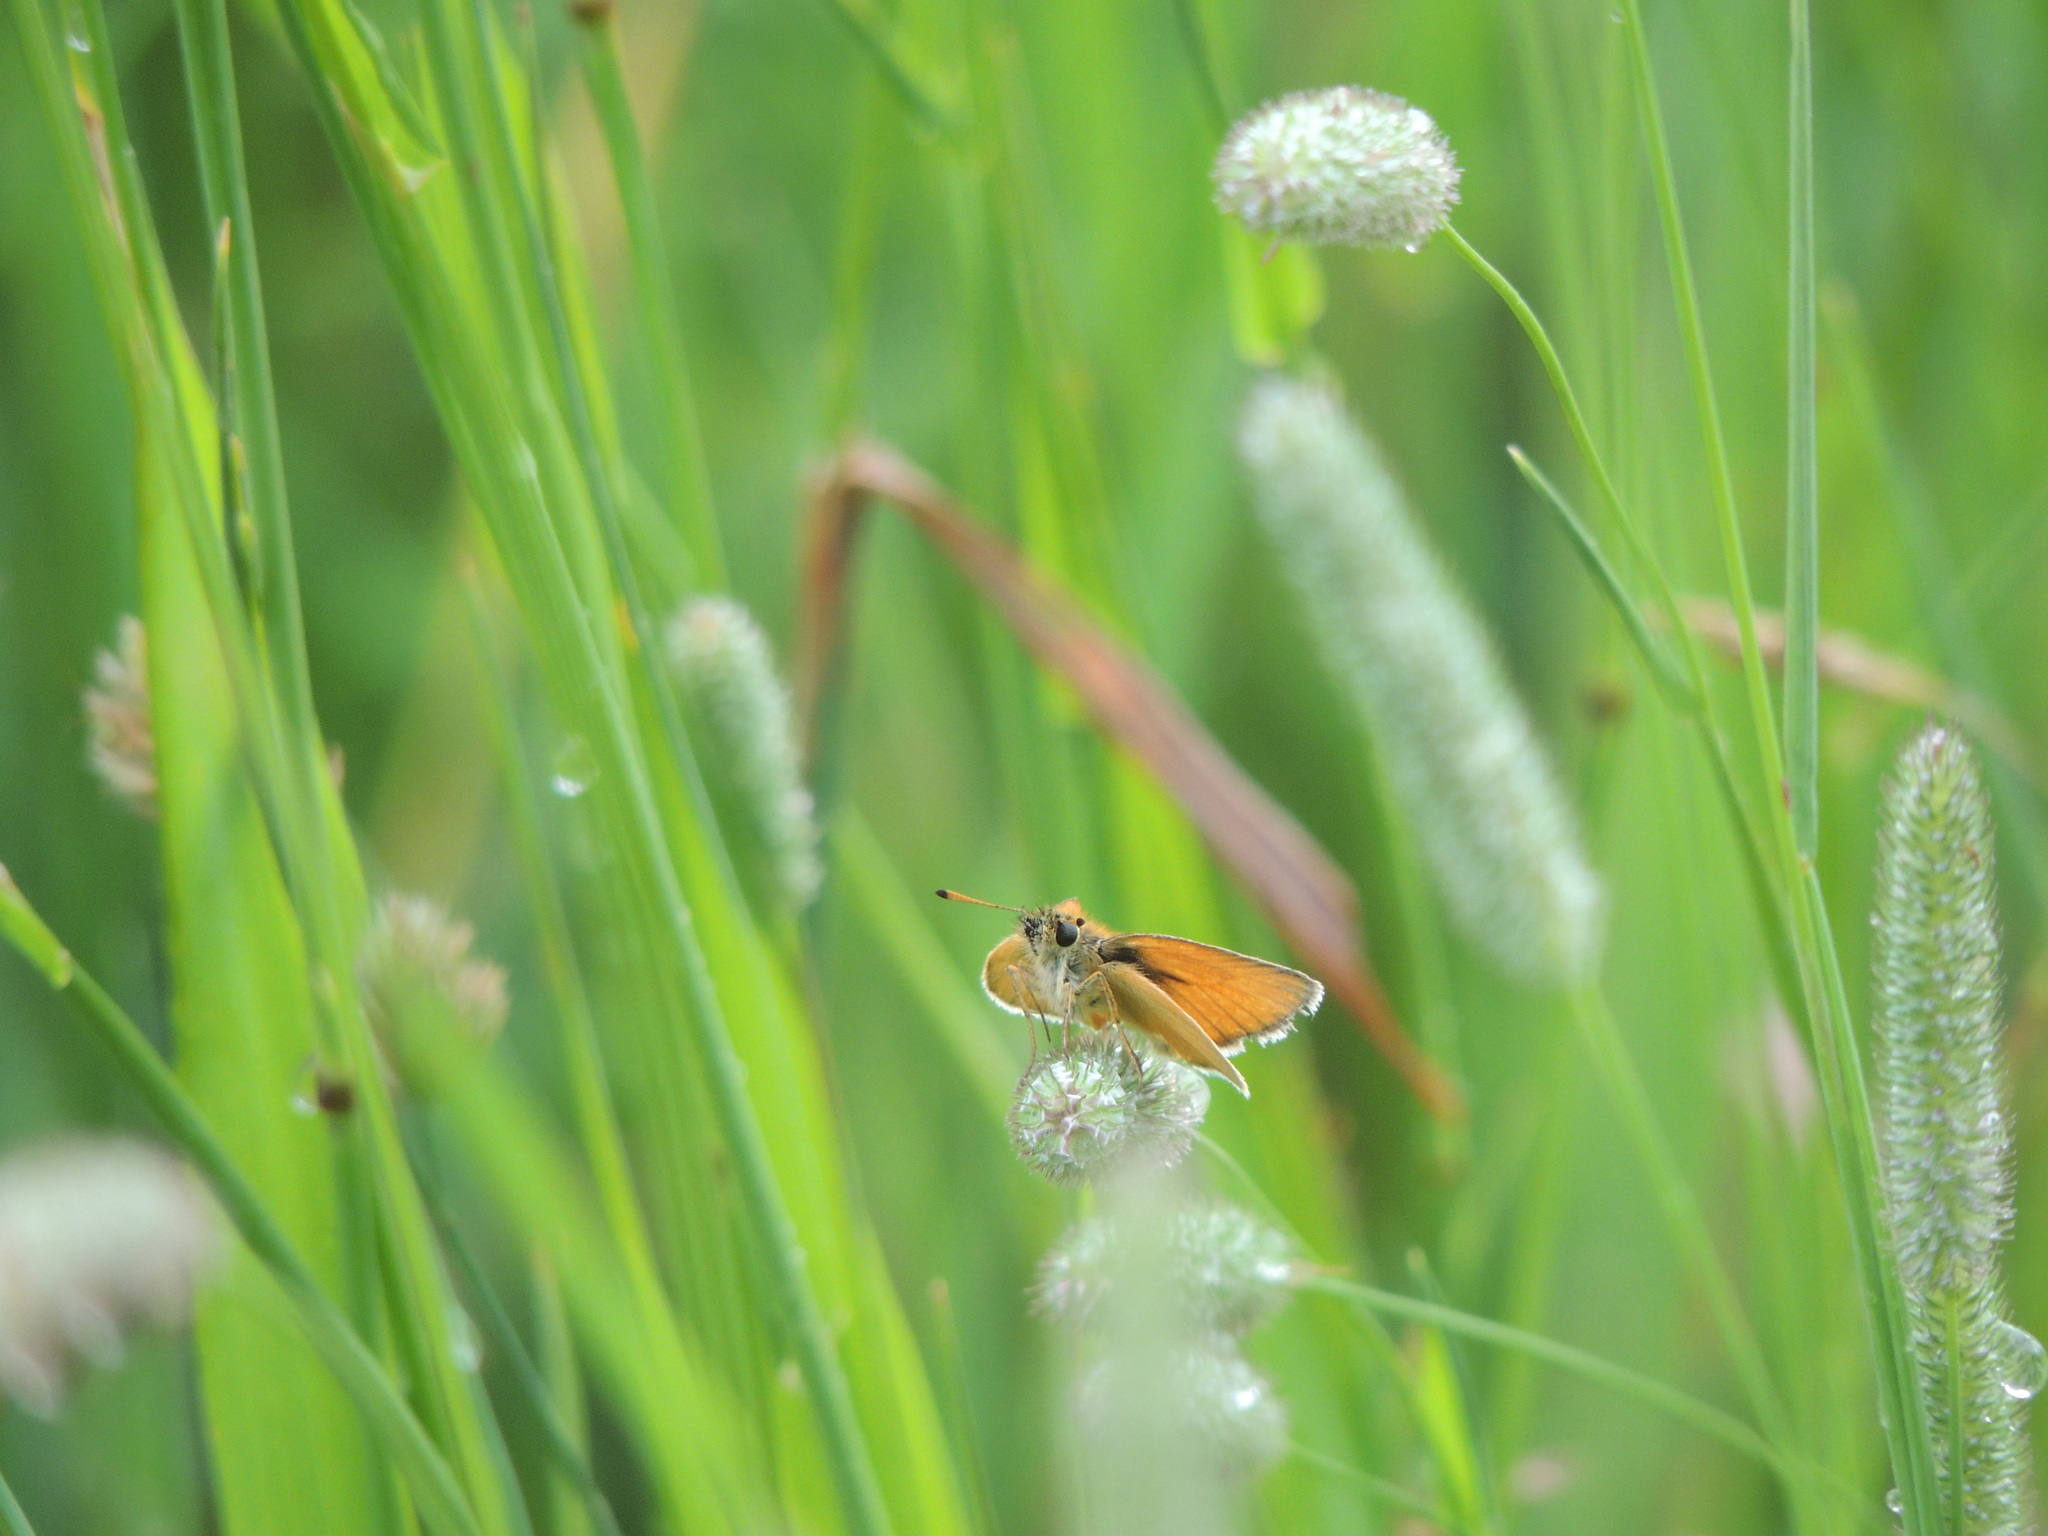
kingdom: Animalia
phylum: Arthropoda
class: Insecta
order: Lepidoptera
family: Hesperiidae
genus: Thymelicus
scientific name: Thymelicus lineola
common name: Essex skipper
